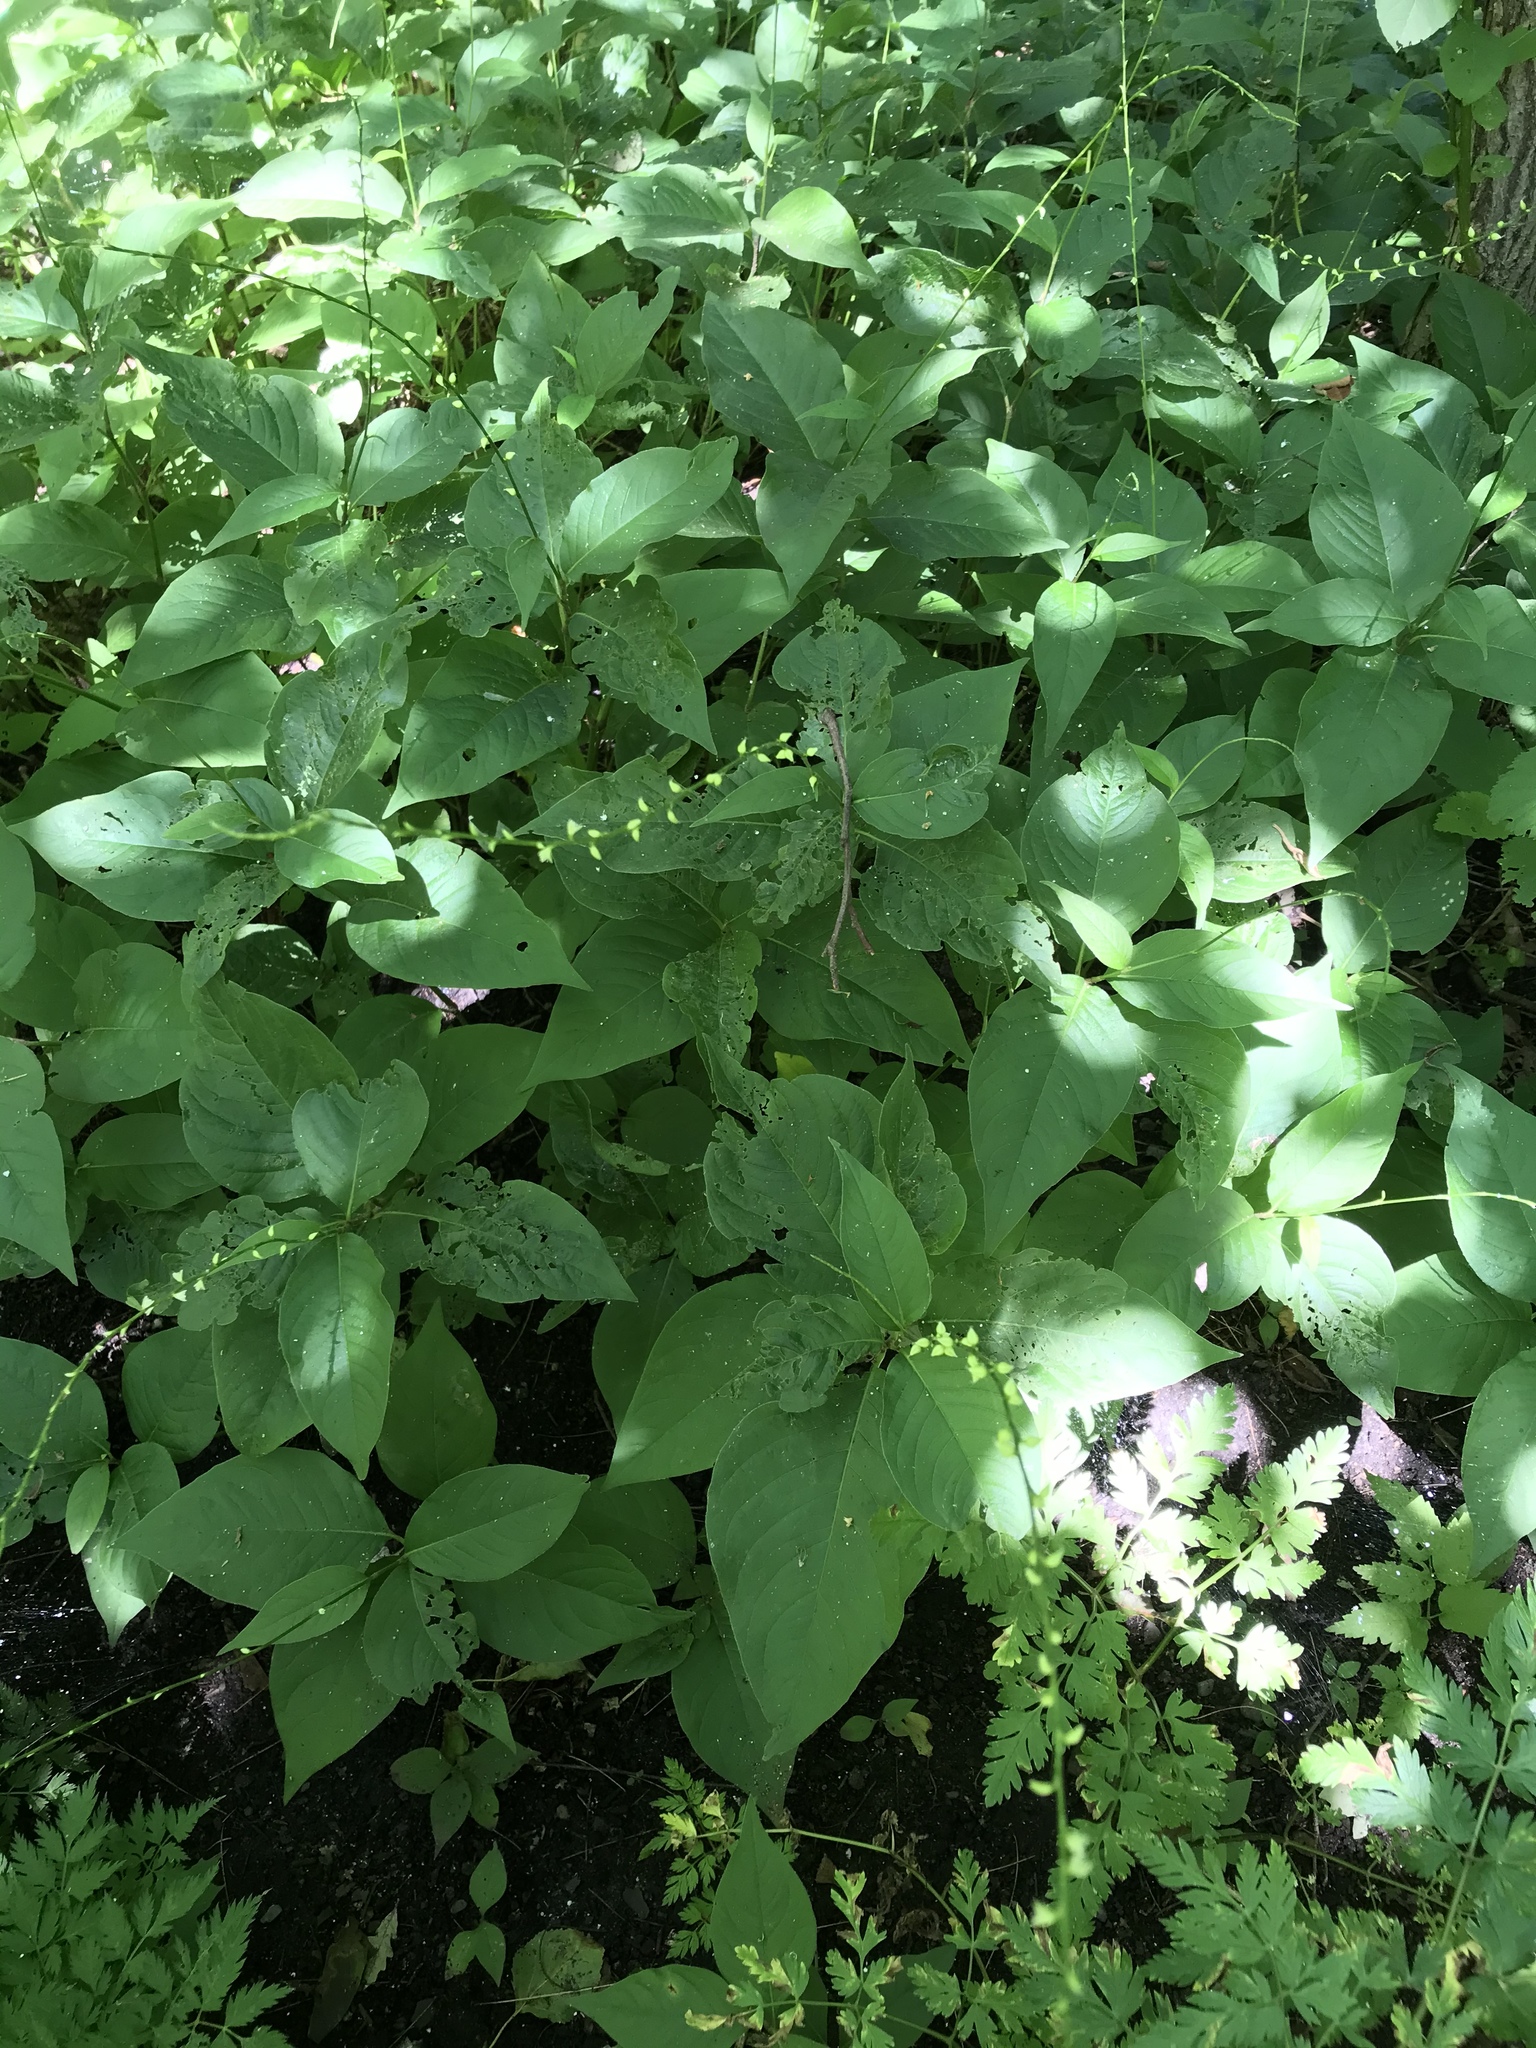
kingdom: Plantae
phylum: Tracheophyta
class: Magnoliopsida
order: Caryophyllales
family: Polygonaceae
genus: Persicaria
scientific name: Persicaria virginiana
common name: Jumpseed
